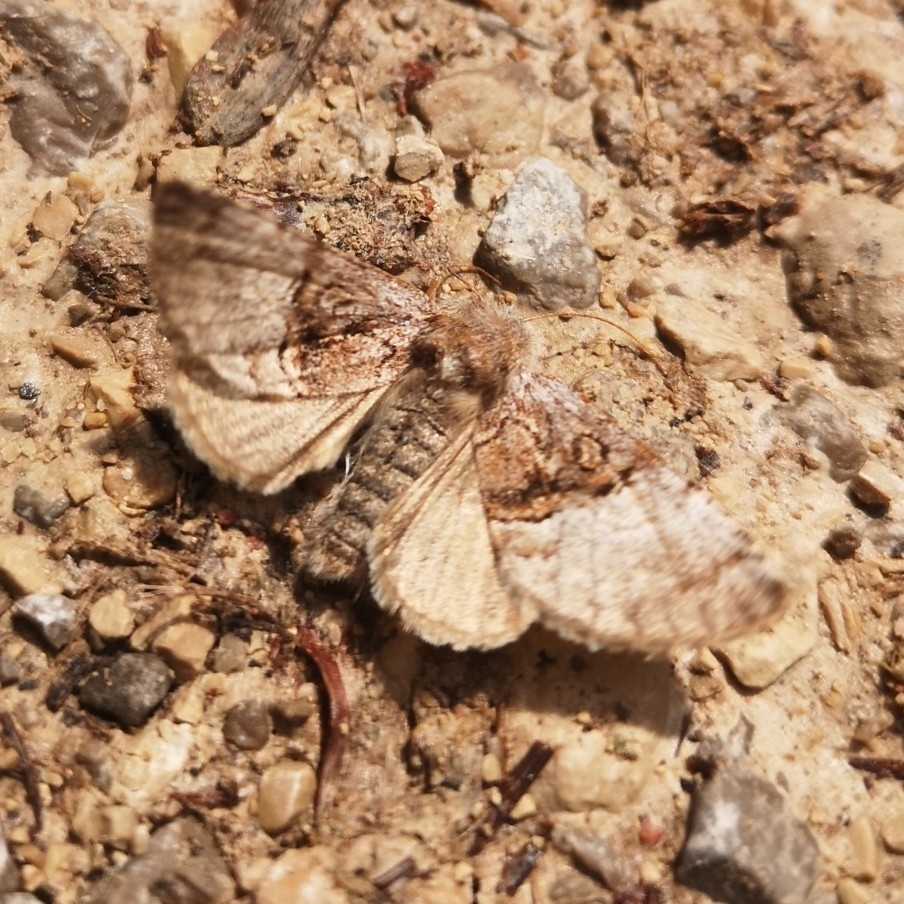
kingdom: Animalia
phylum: Arthropoda
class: Insecta
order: Lepidoptera
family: Noctuidae
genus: Colocasia
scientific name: Colocasia coryli
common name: Nut-tree tussock
